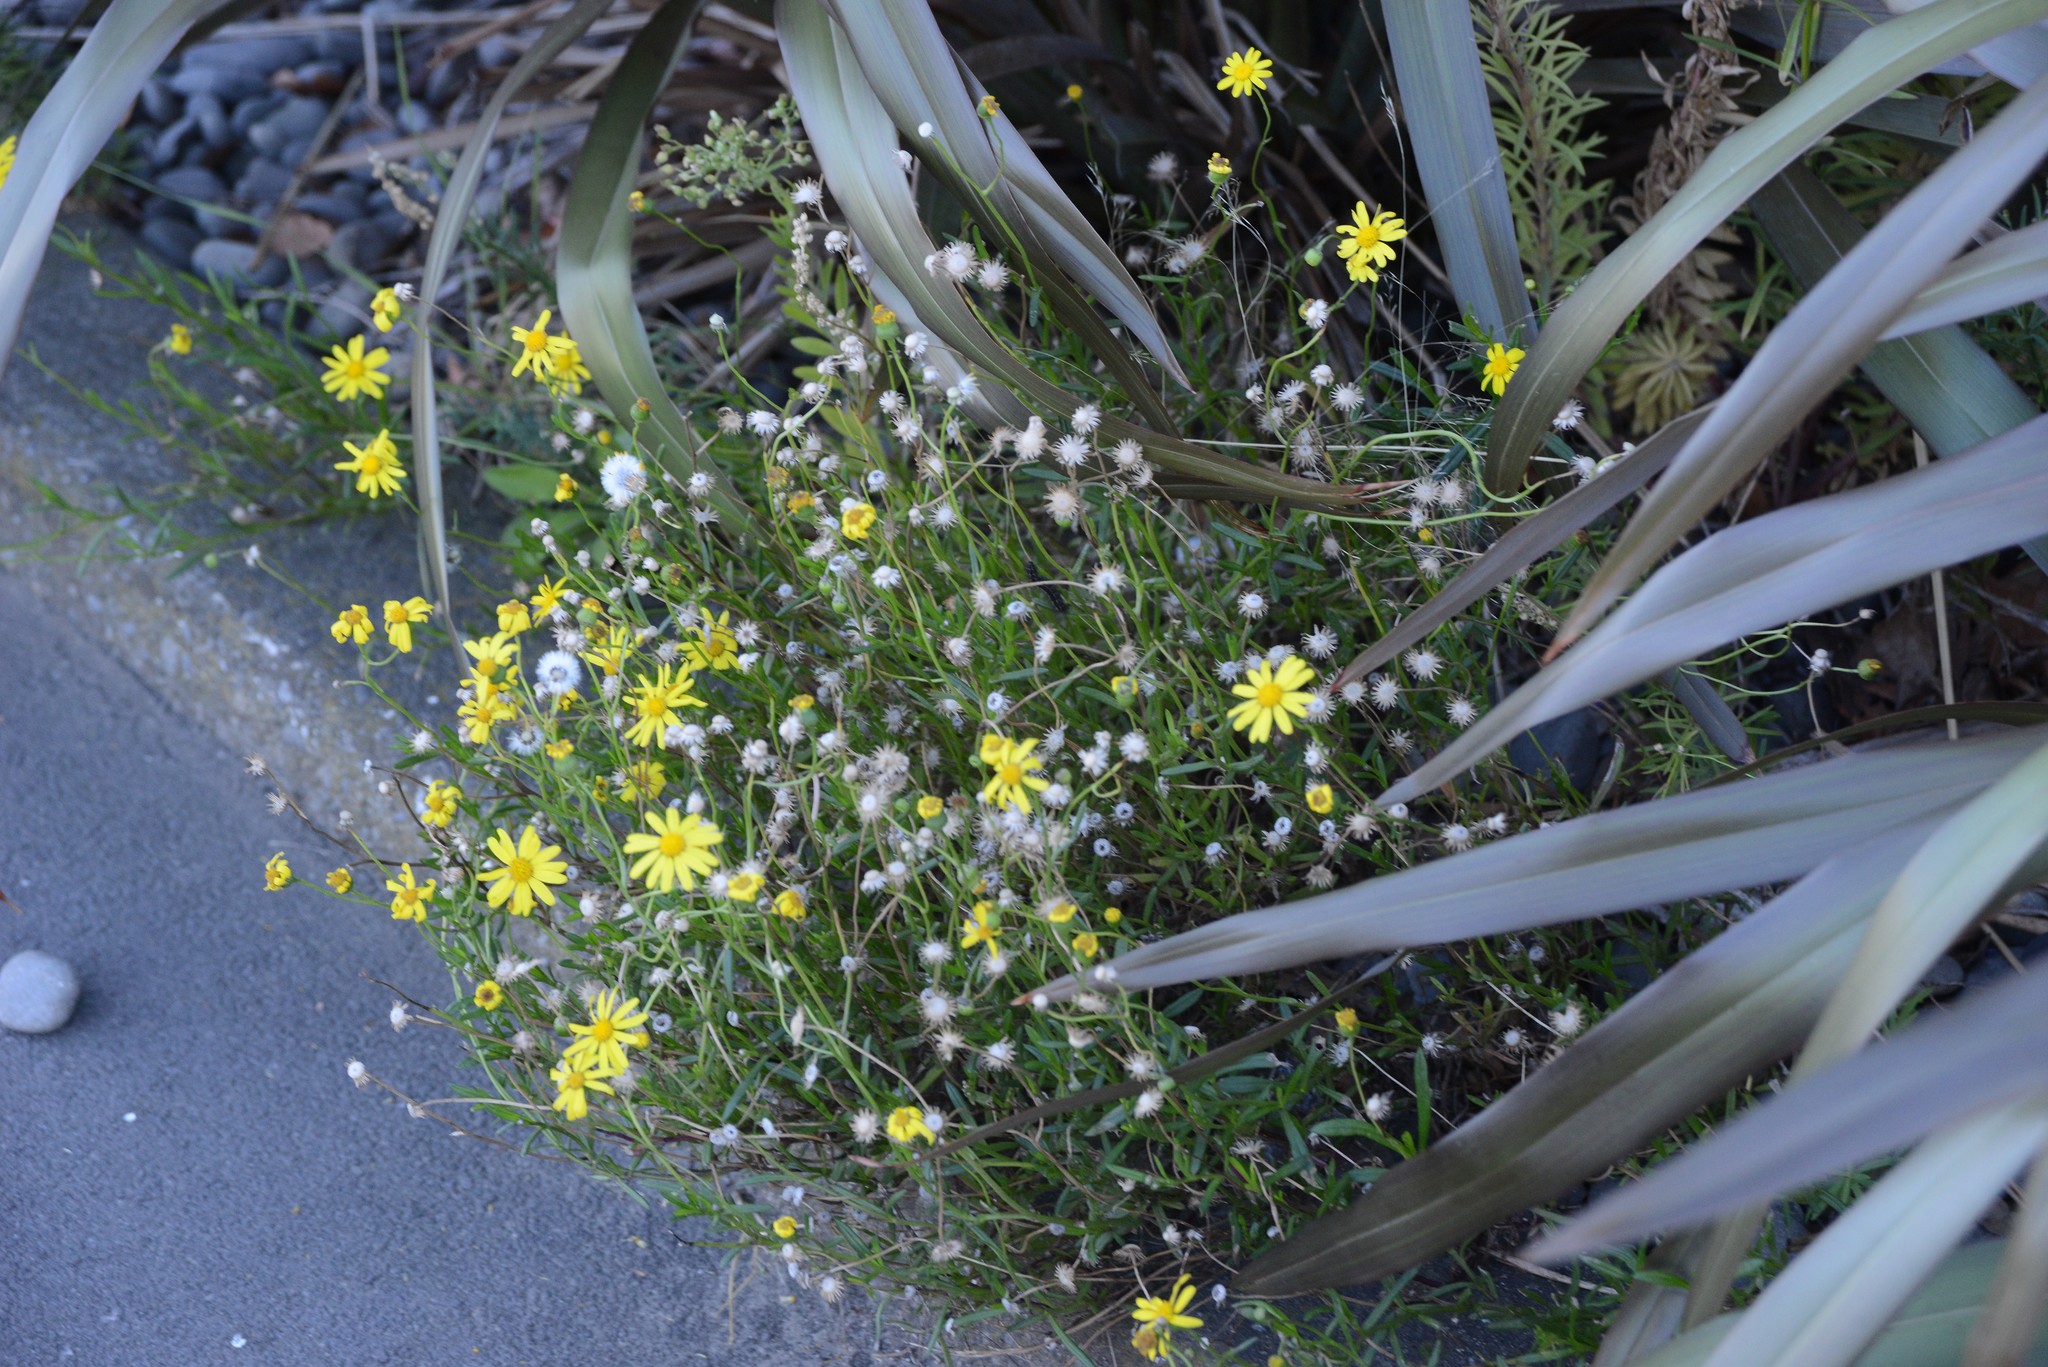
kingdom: Plantae
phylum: Tracheophyta
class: Magnoliopsida
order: Asterales
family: Asteraceae
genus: Senecio
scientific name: Senecio skirrhodon
